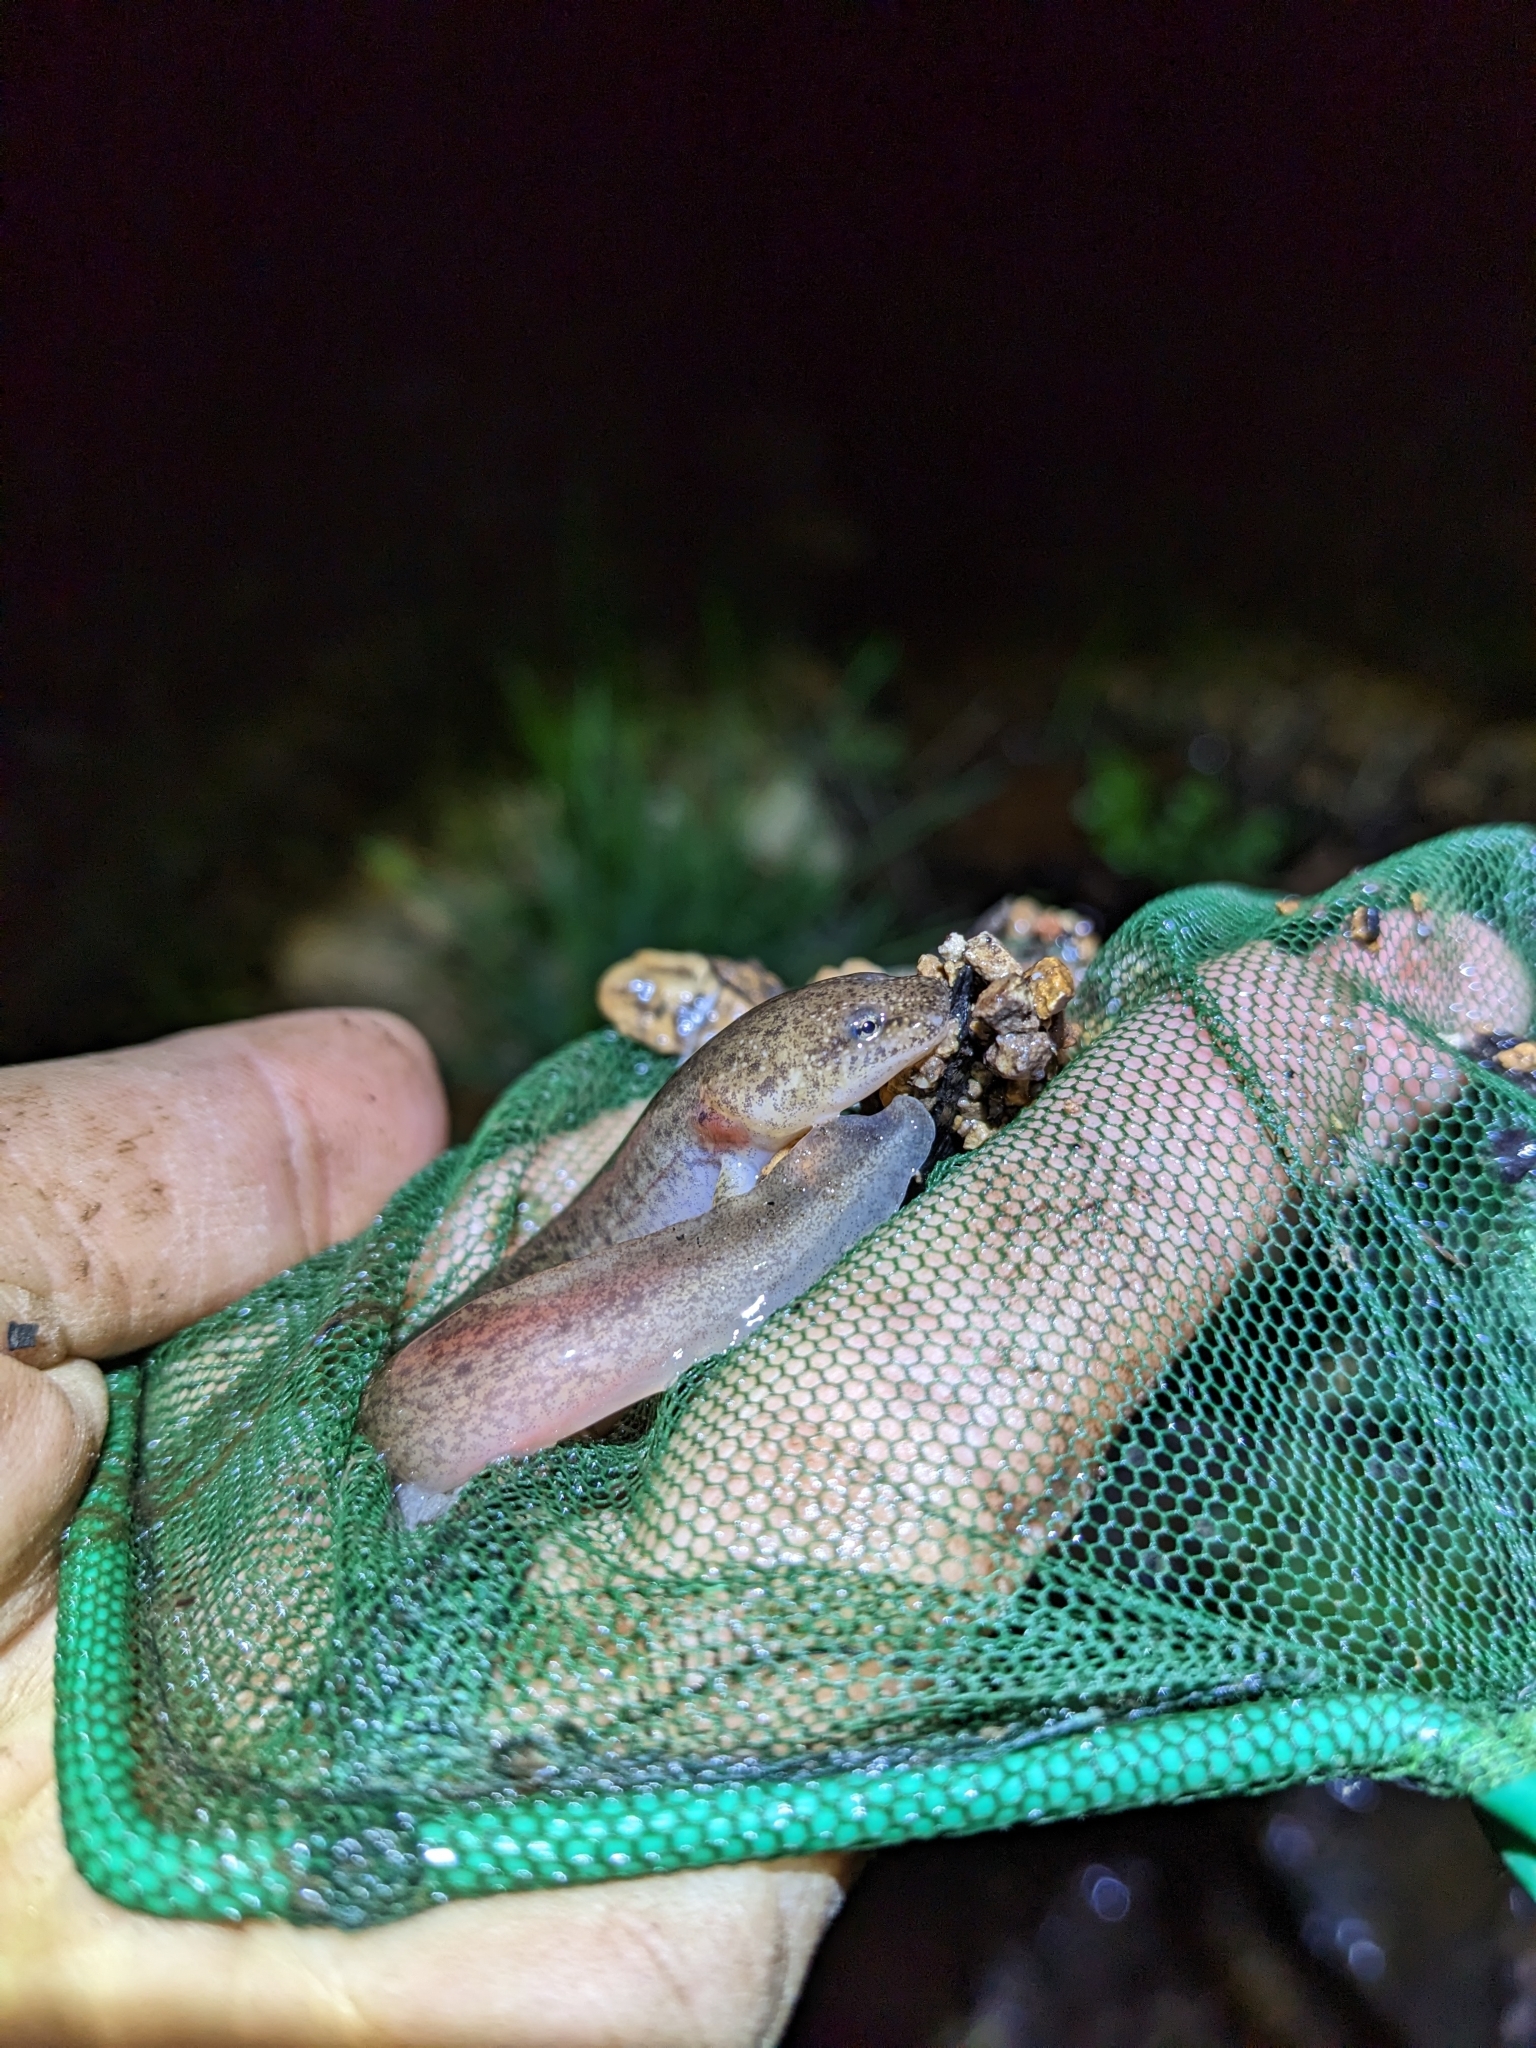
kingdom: Animalia
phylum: Chordata
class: Amphibia
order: Caudata
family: Plethodontidae
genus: Pseudotriton
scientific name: Pseudotriton ruber
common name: Red salamander
